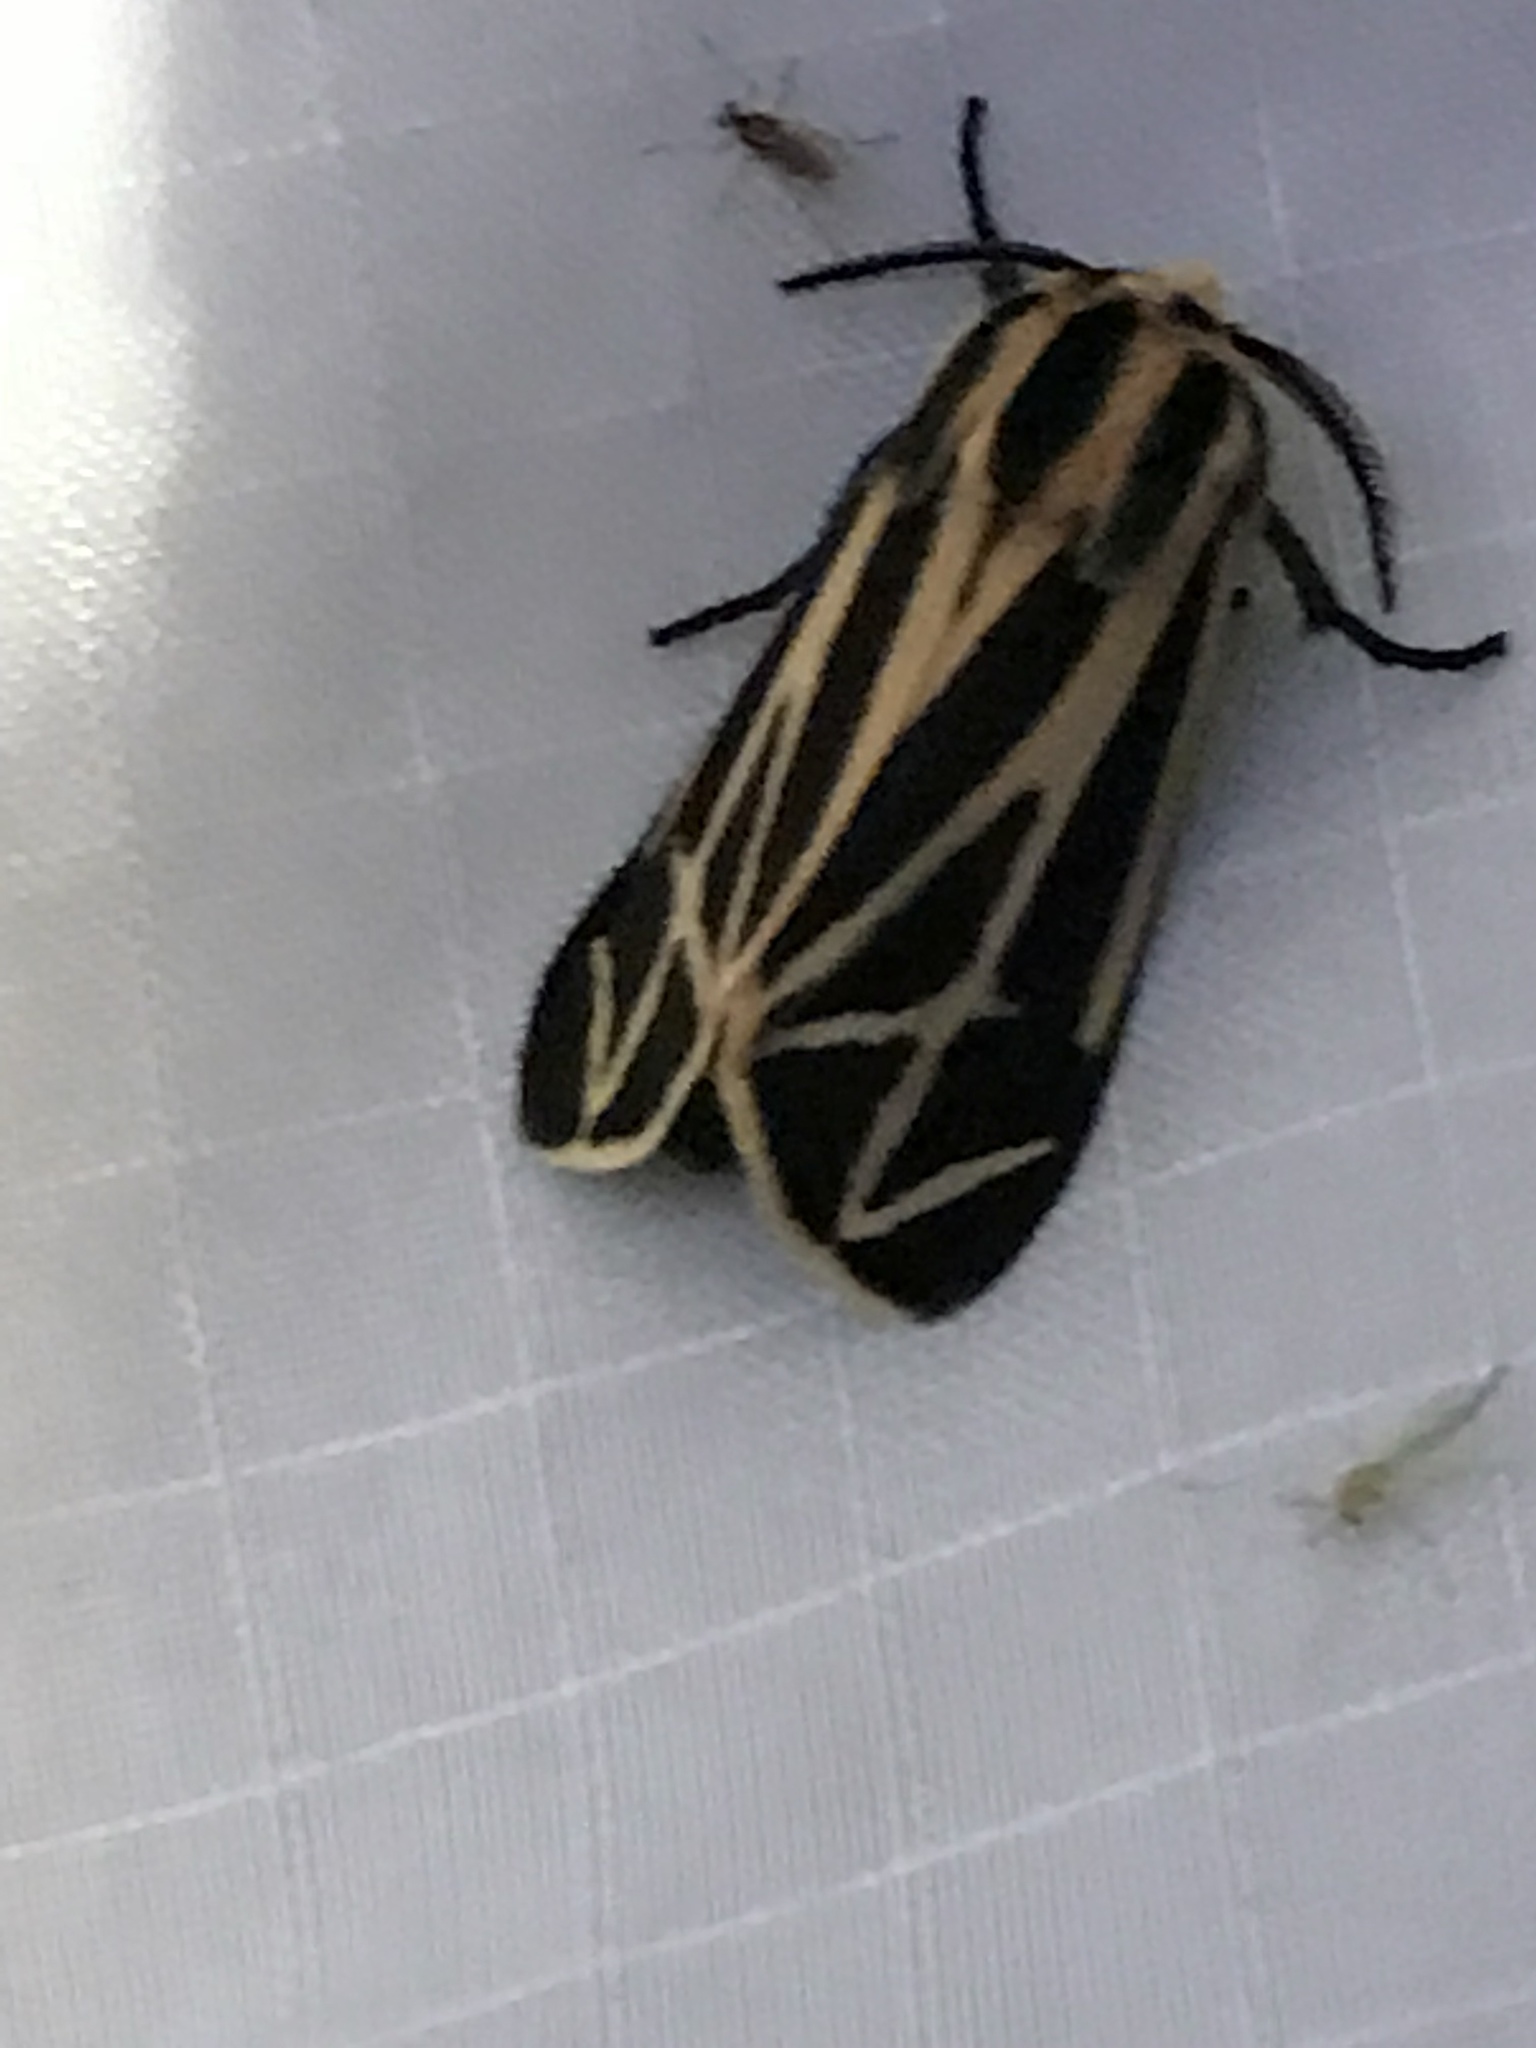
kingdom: Animalia
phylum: Arthropoda
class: Insecta
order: Lepidoptera
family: Erebidae
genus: Apantesis
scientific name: Apantesis phalerata
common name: Harnessed tiger moth
